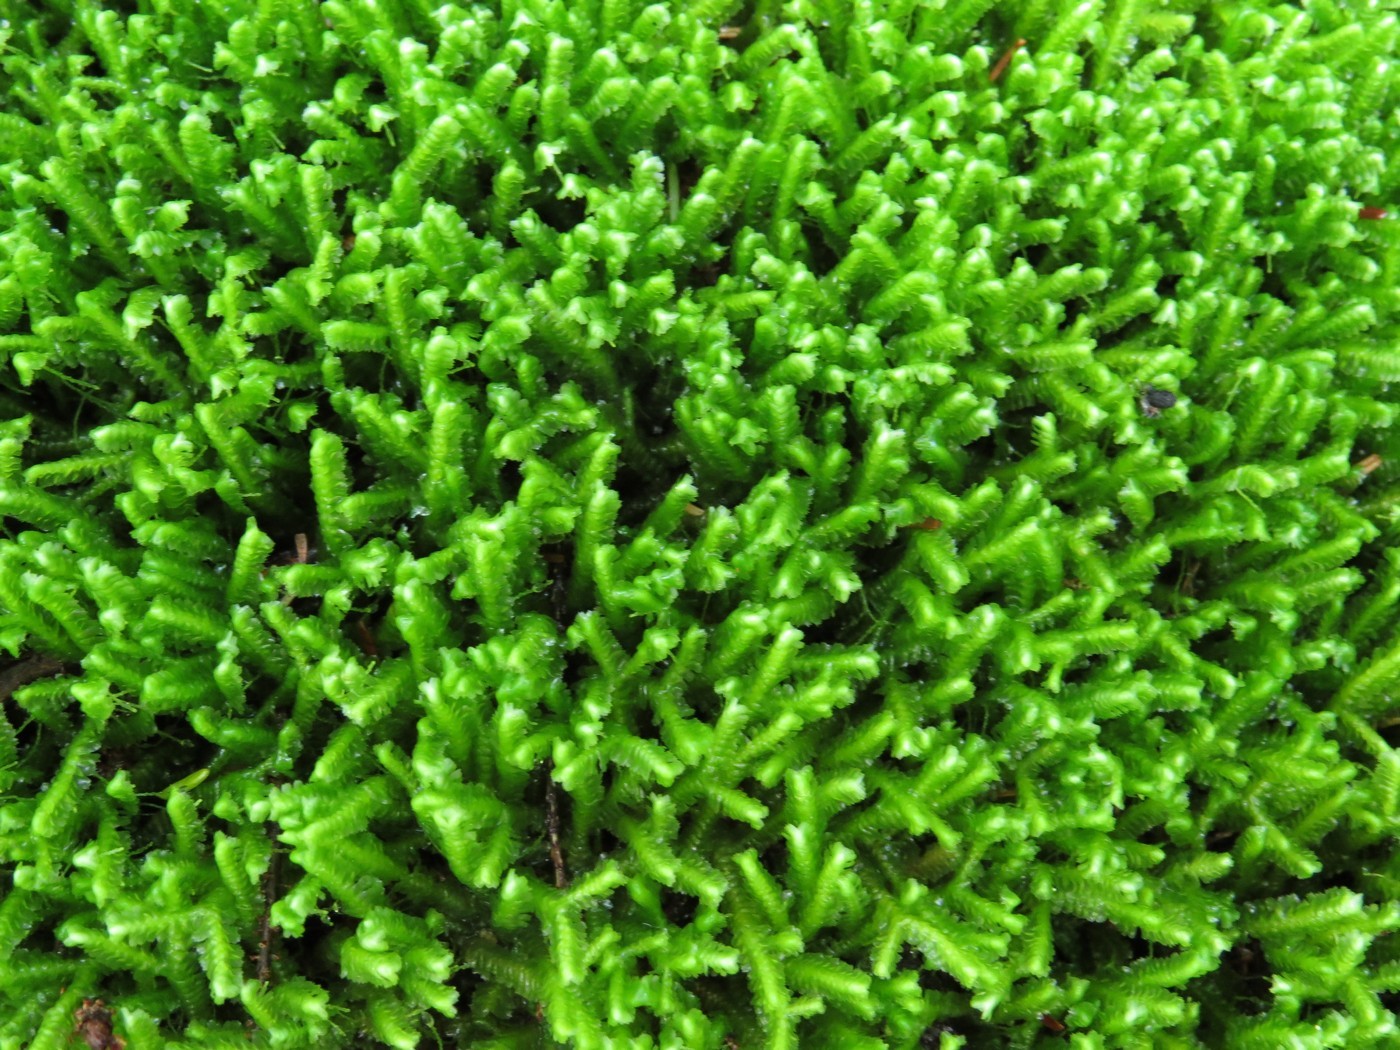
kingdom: Plantae
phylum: Marchantiophyta
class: Jungermanniopsida
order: Jungermanniales
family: Lepidoziaceae
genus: Bazzania
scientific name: Bazzania trilobata
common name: Three-lobed whipwort
